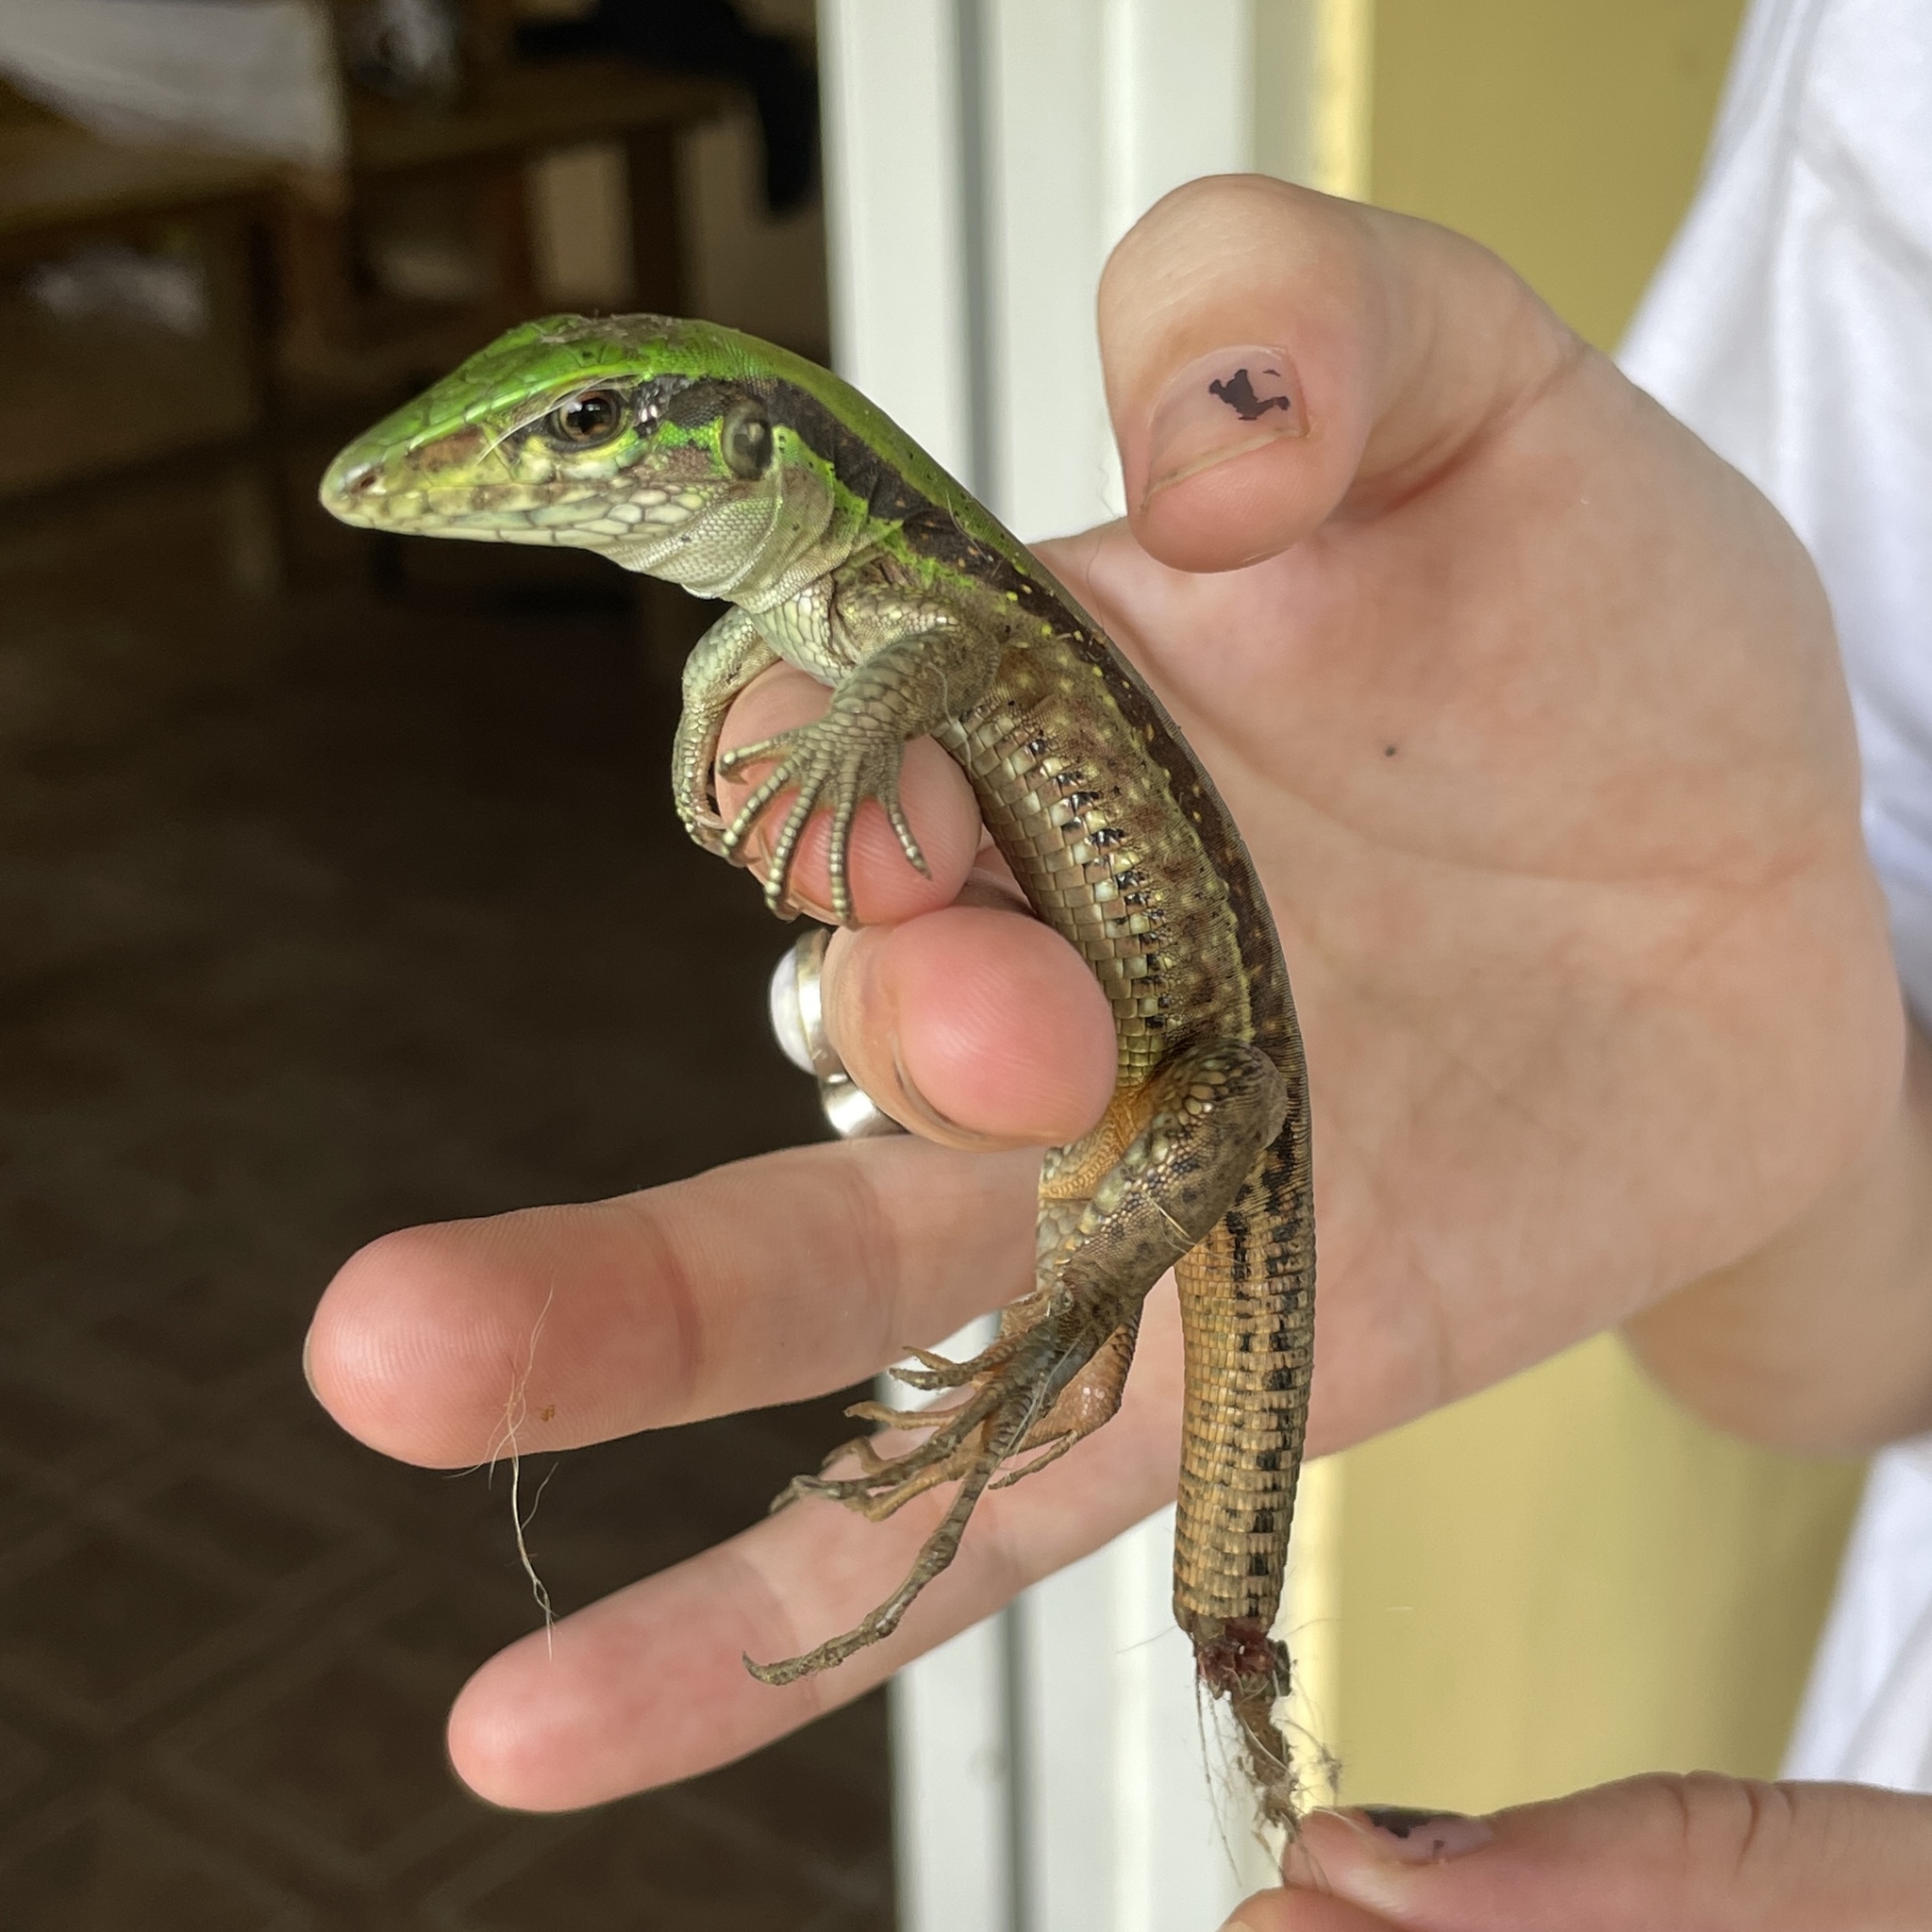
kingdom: Animalia
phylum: Chordata
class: Squamata
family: Teiidae
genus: Ameiva
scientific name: Ameiva atrigularis
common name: Venezuelan ameiva
